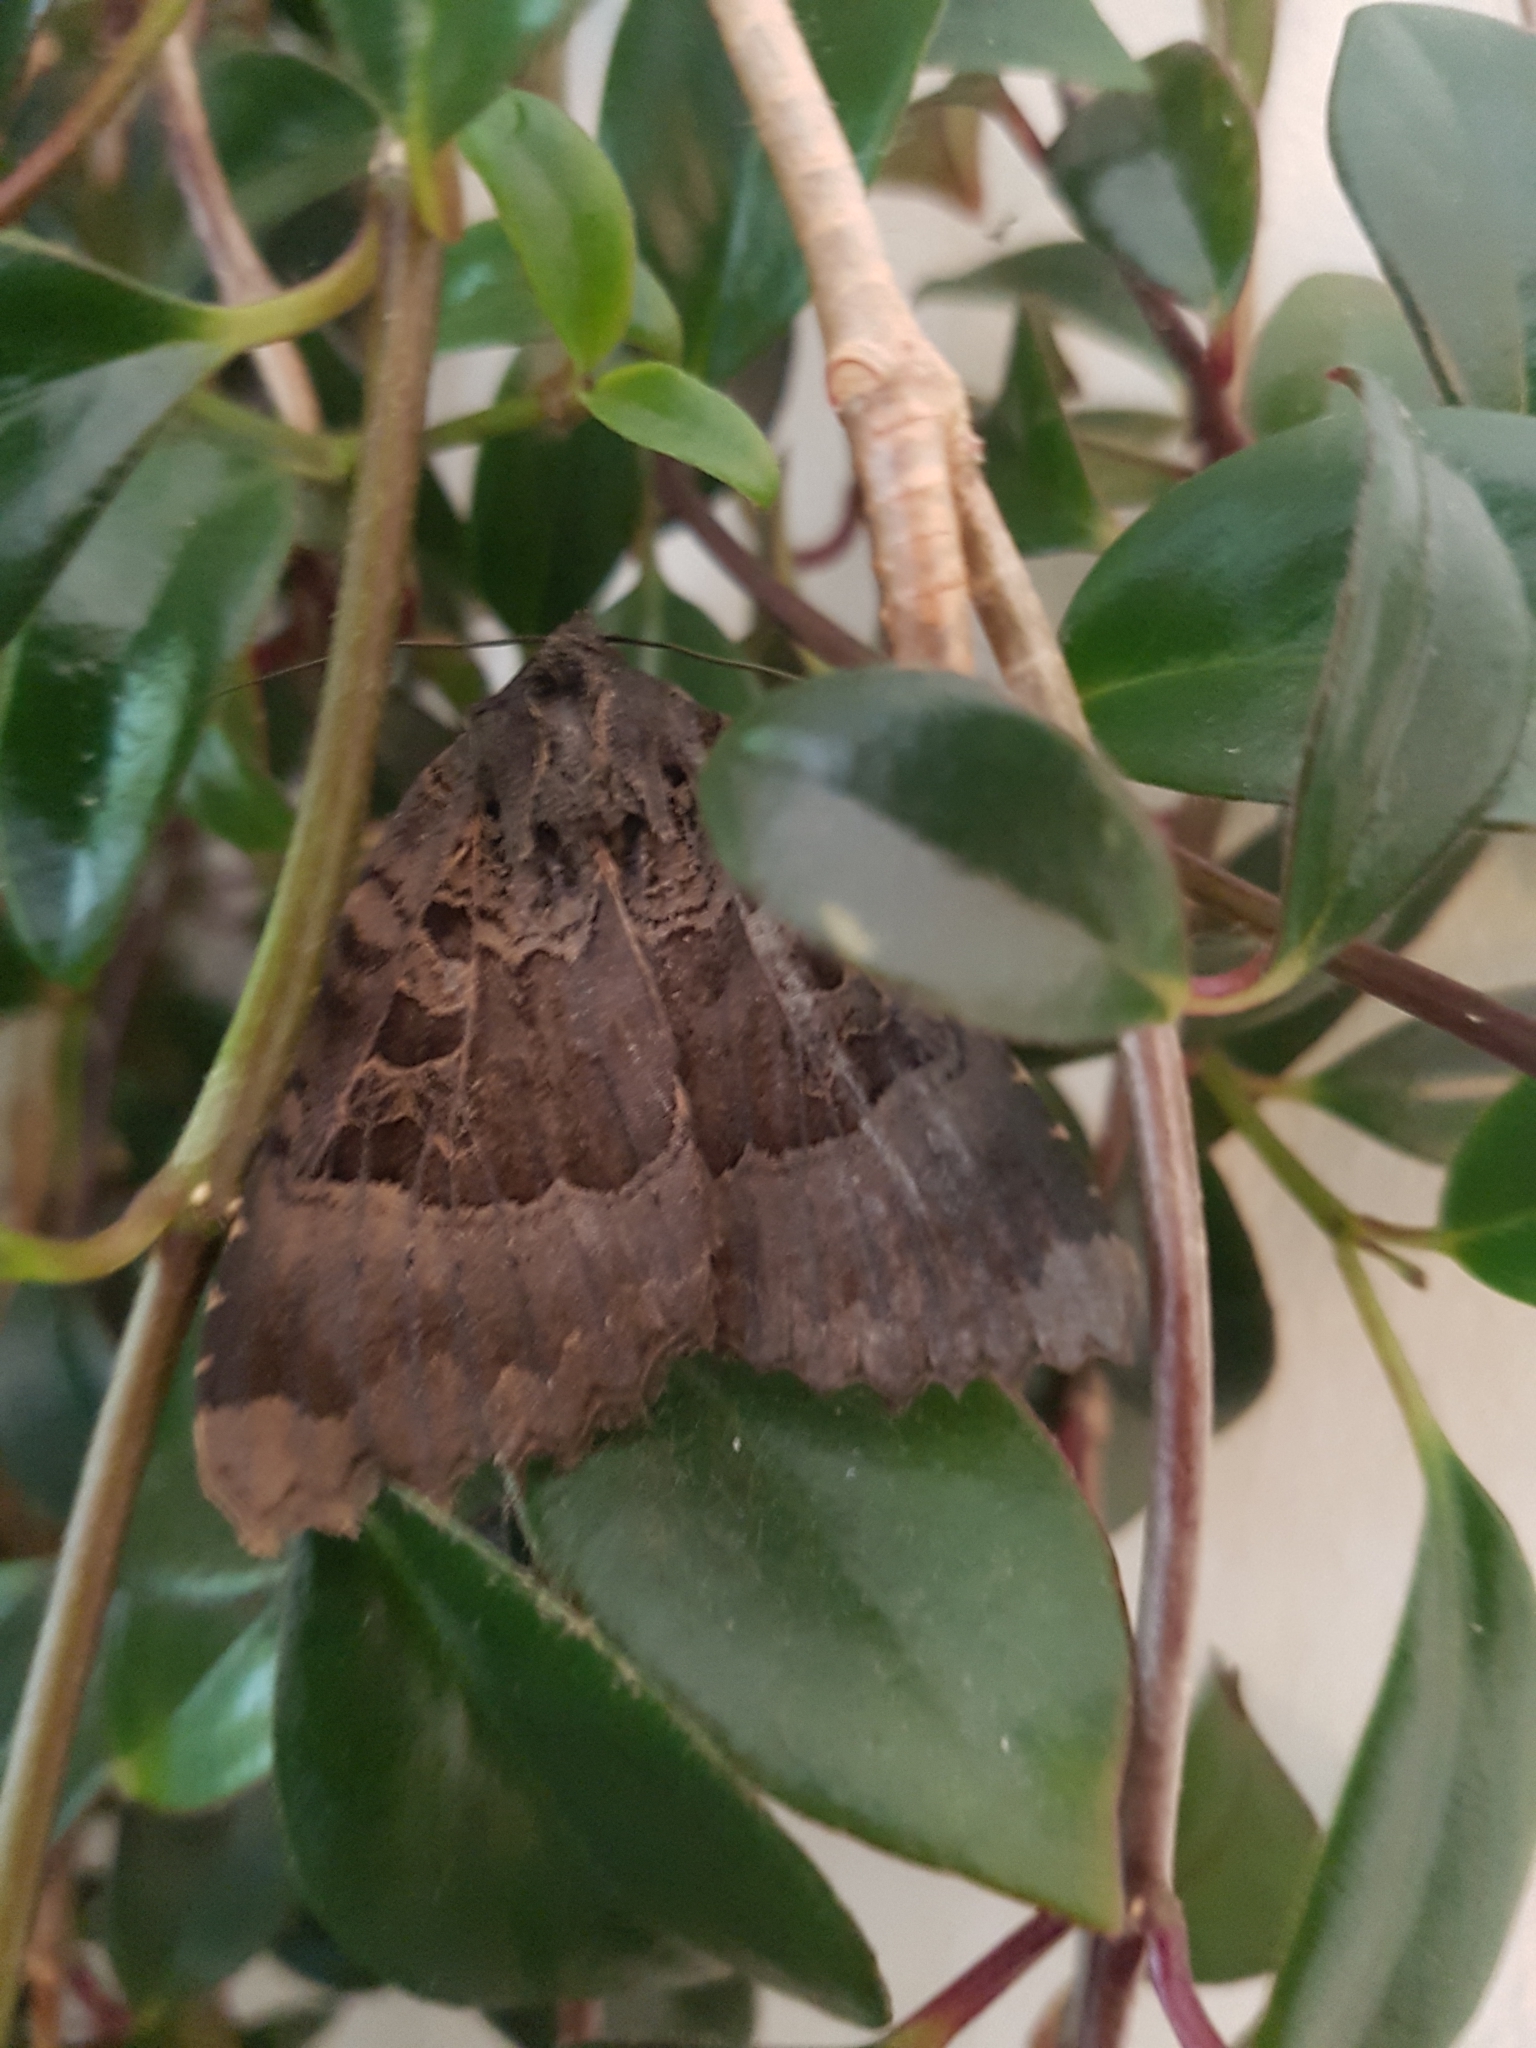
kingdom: Animalia
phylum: Arthropoda
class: Insecta
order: Lepidoptera
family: Noctuidae
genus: Mormo
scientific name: Mormo maura
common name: Old lady
